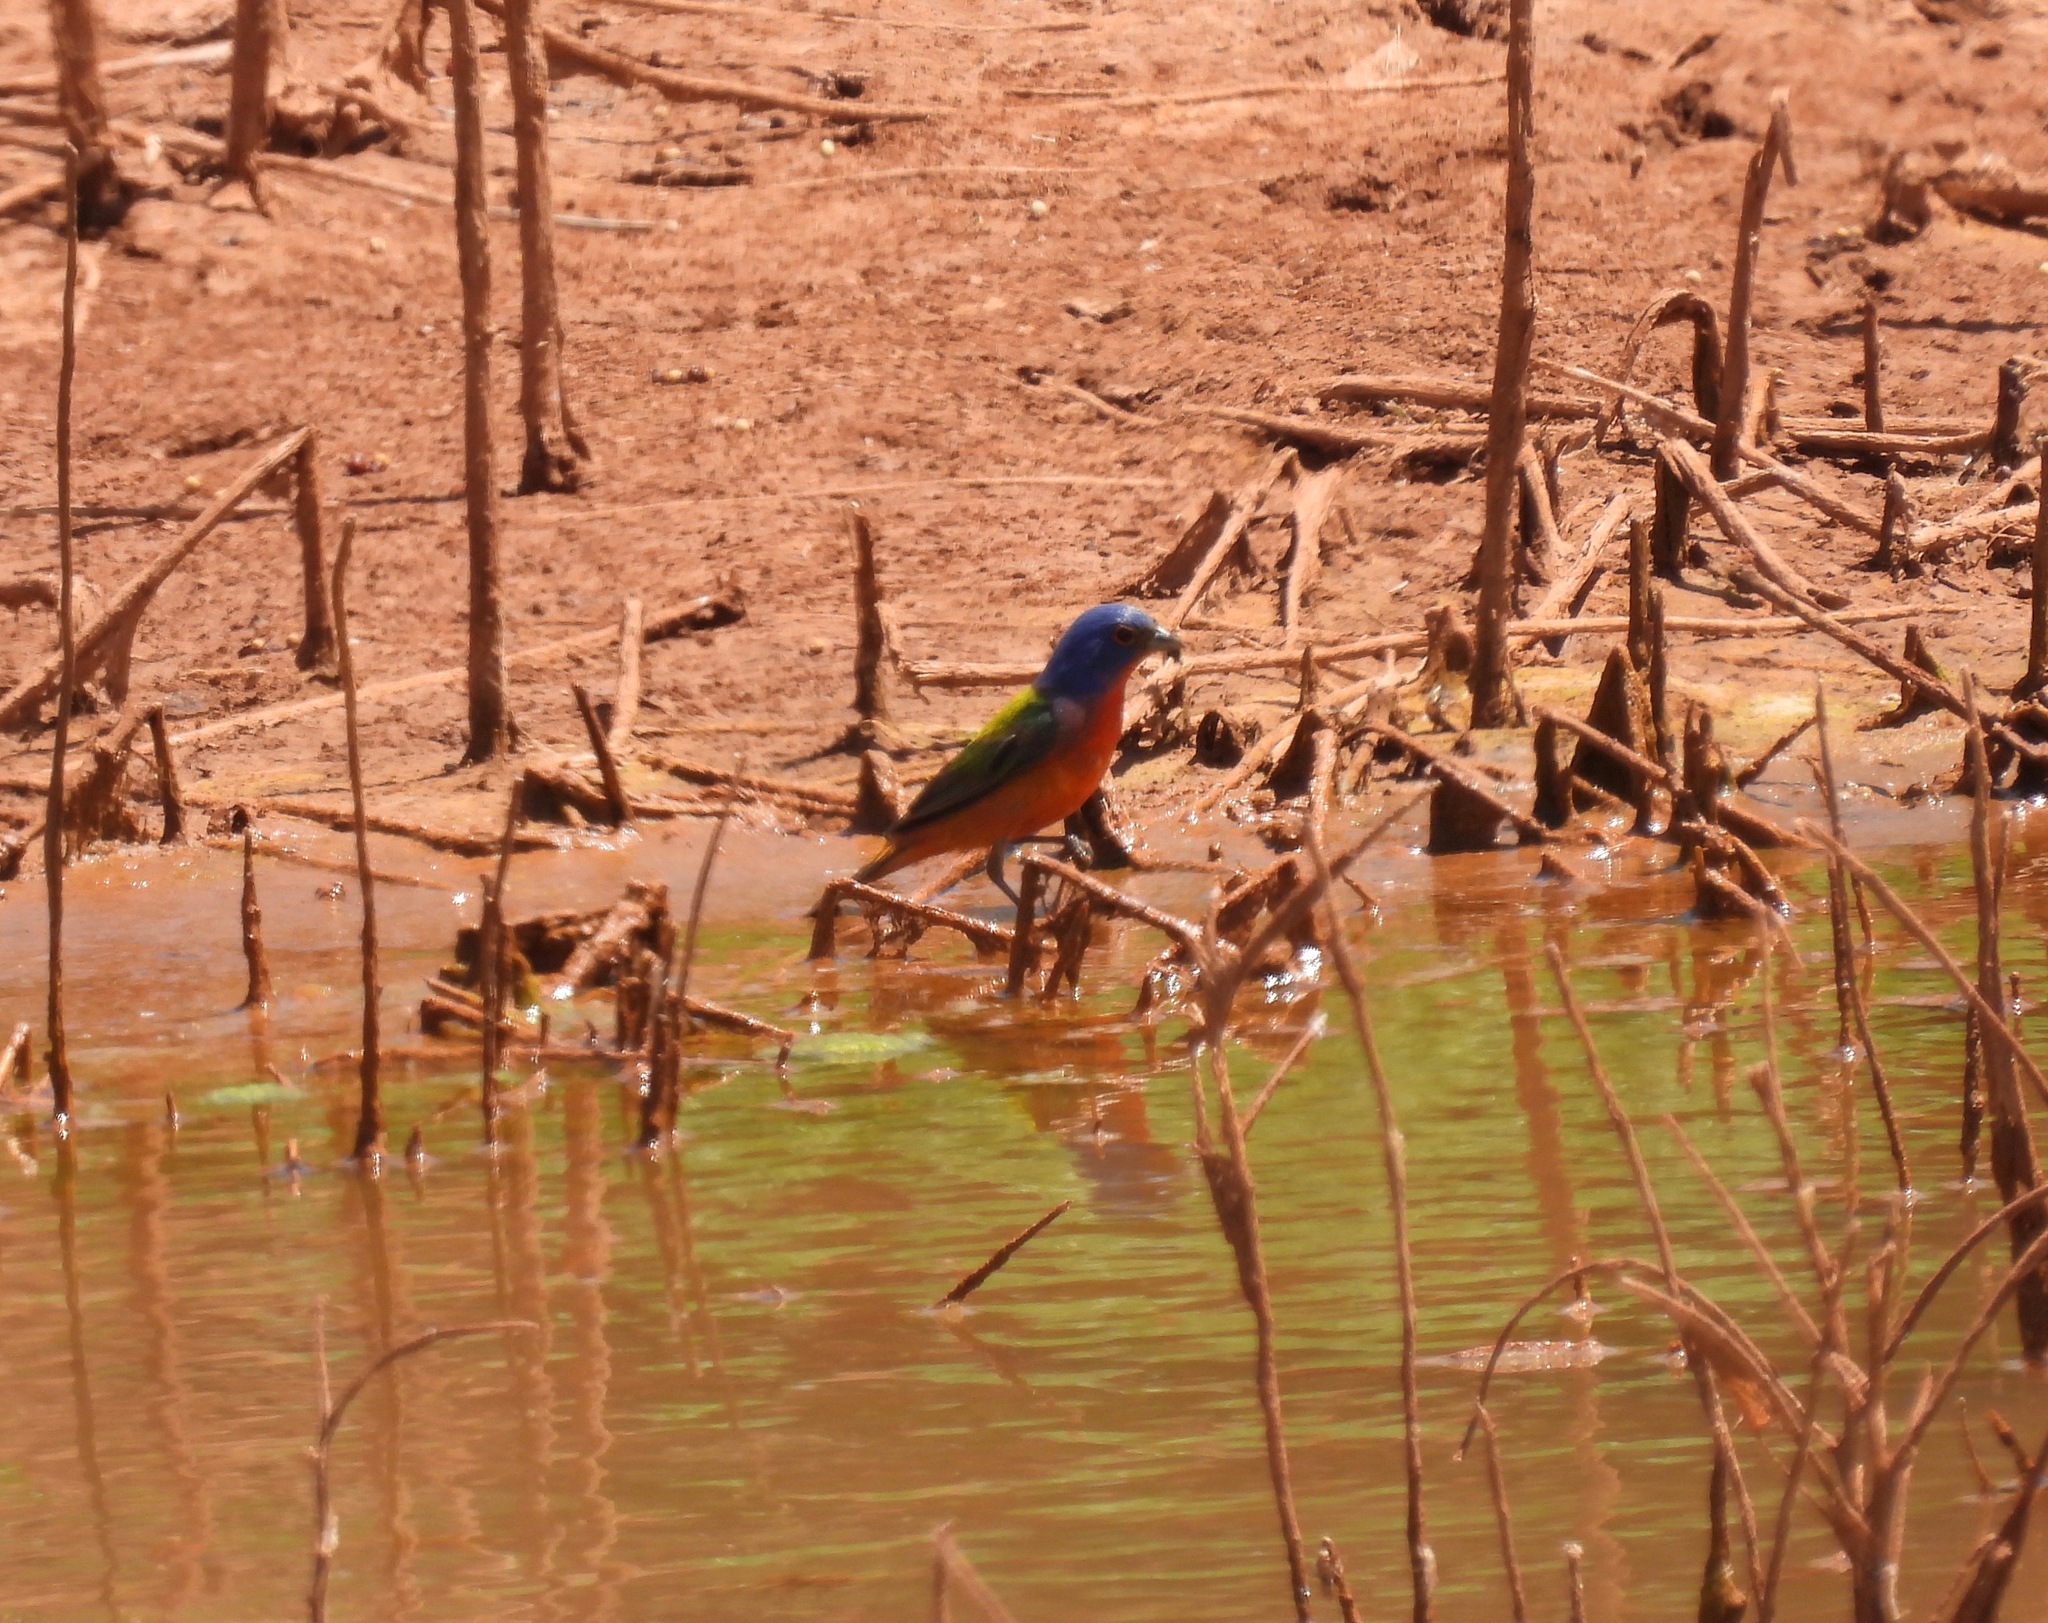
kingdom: Animalia
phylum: Chordata
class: Aves
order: Passeriformes
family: Cardinalidae
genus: Passerina
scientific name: Passerina ciris
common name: Painted bunting
